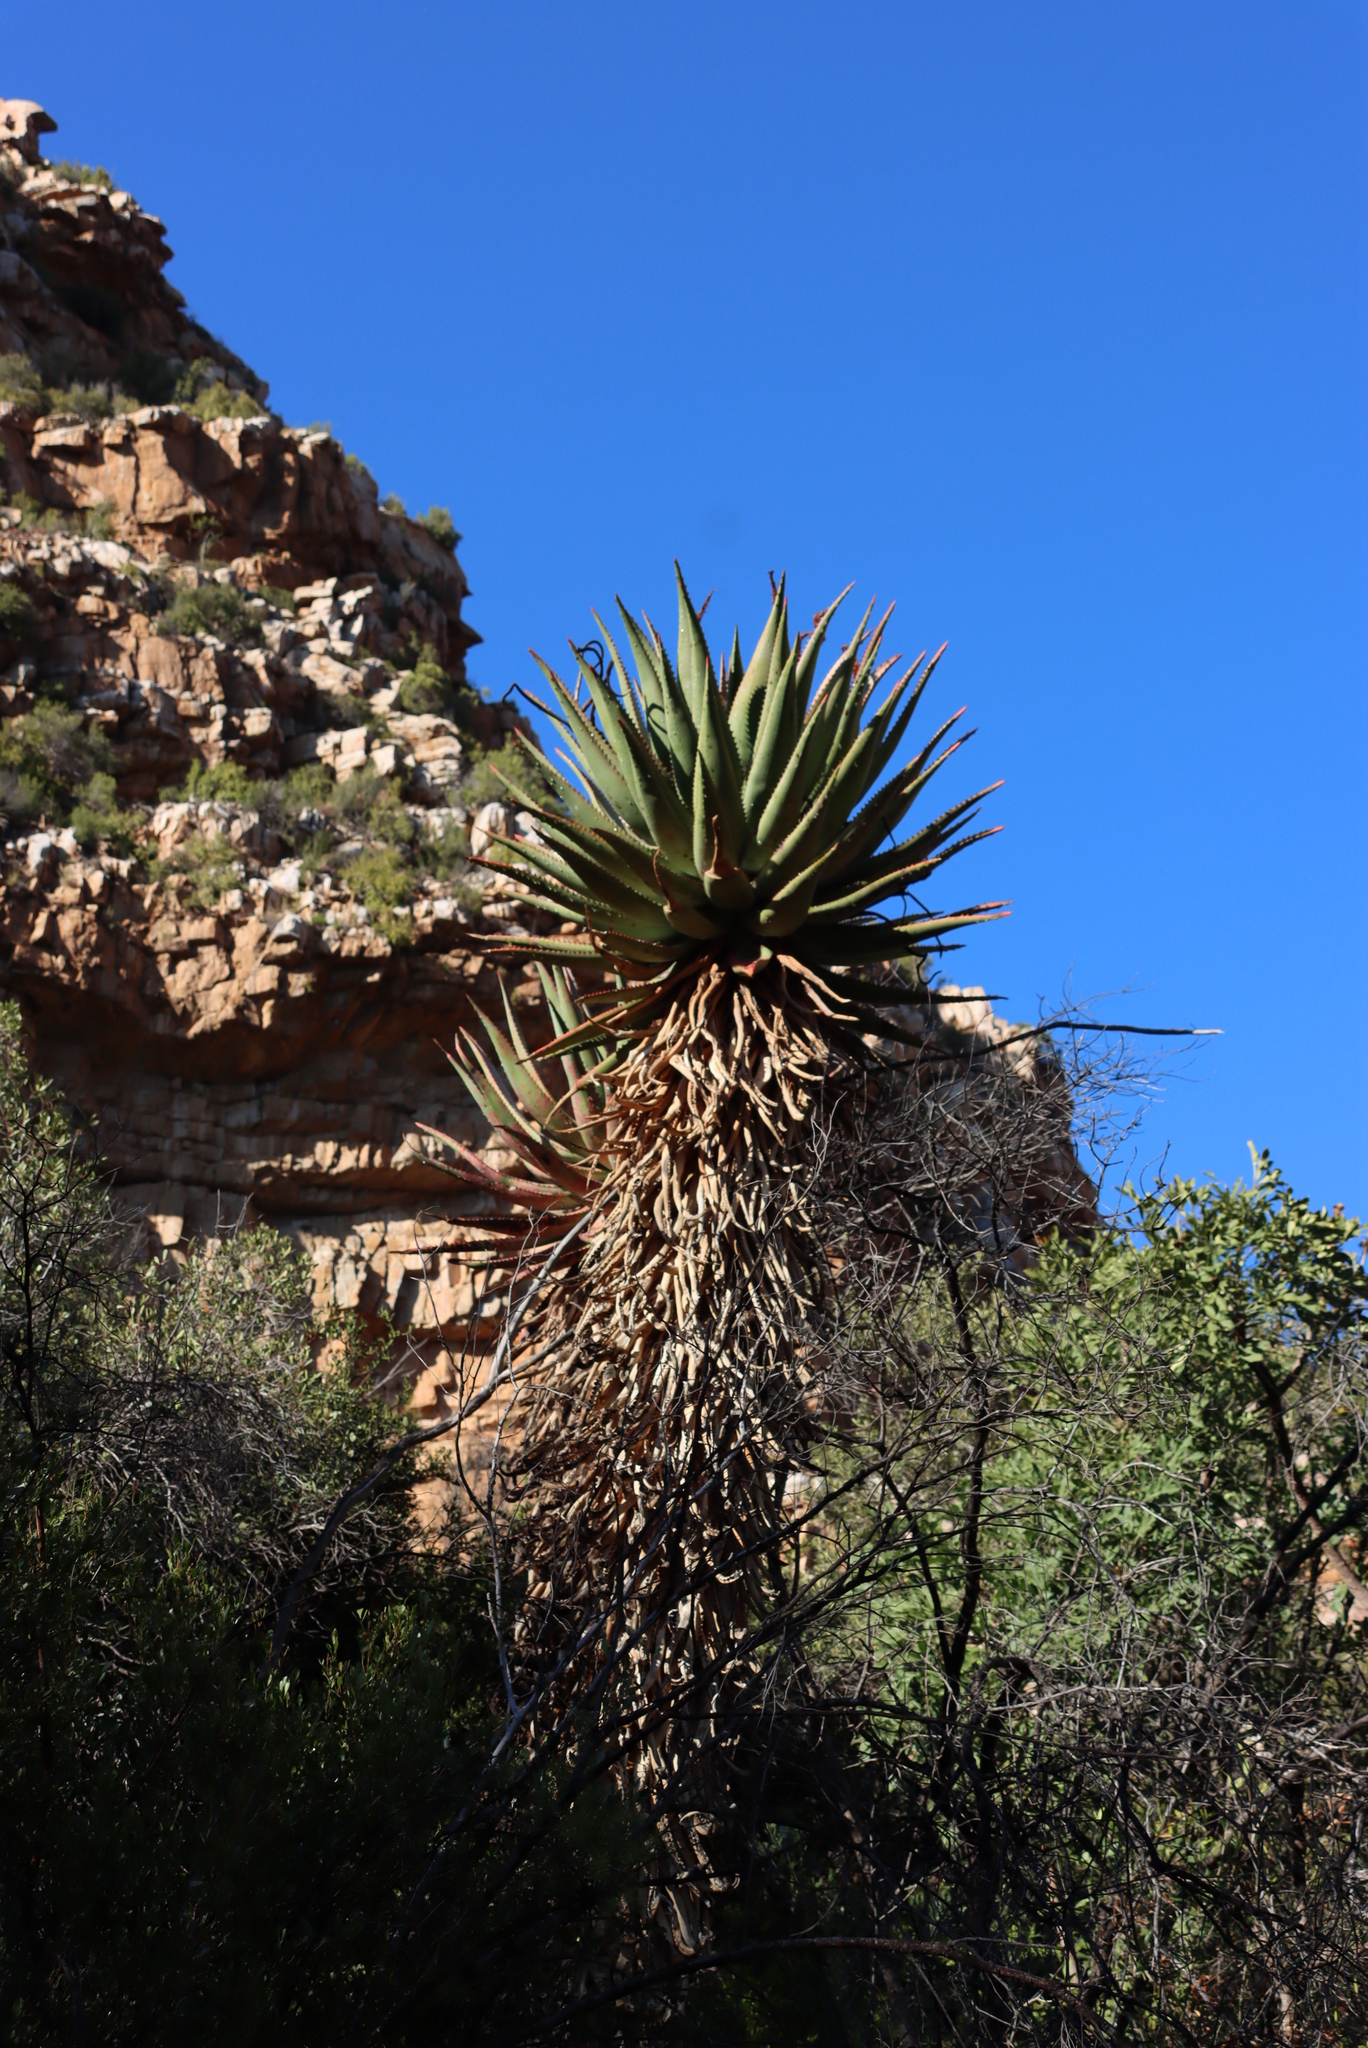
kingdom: Plantae
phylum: Tracheophyta
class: Liliopsida
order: Asparagales
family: Asphodelaceae
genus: Aloe
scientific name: Aloe ferox
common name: Bitter aloe
